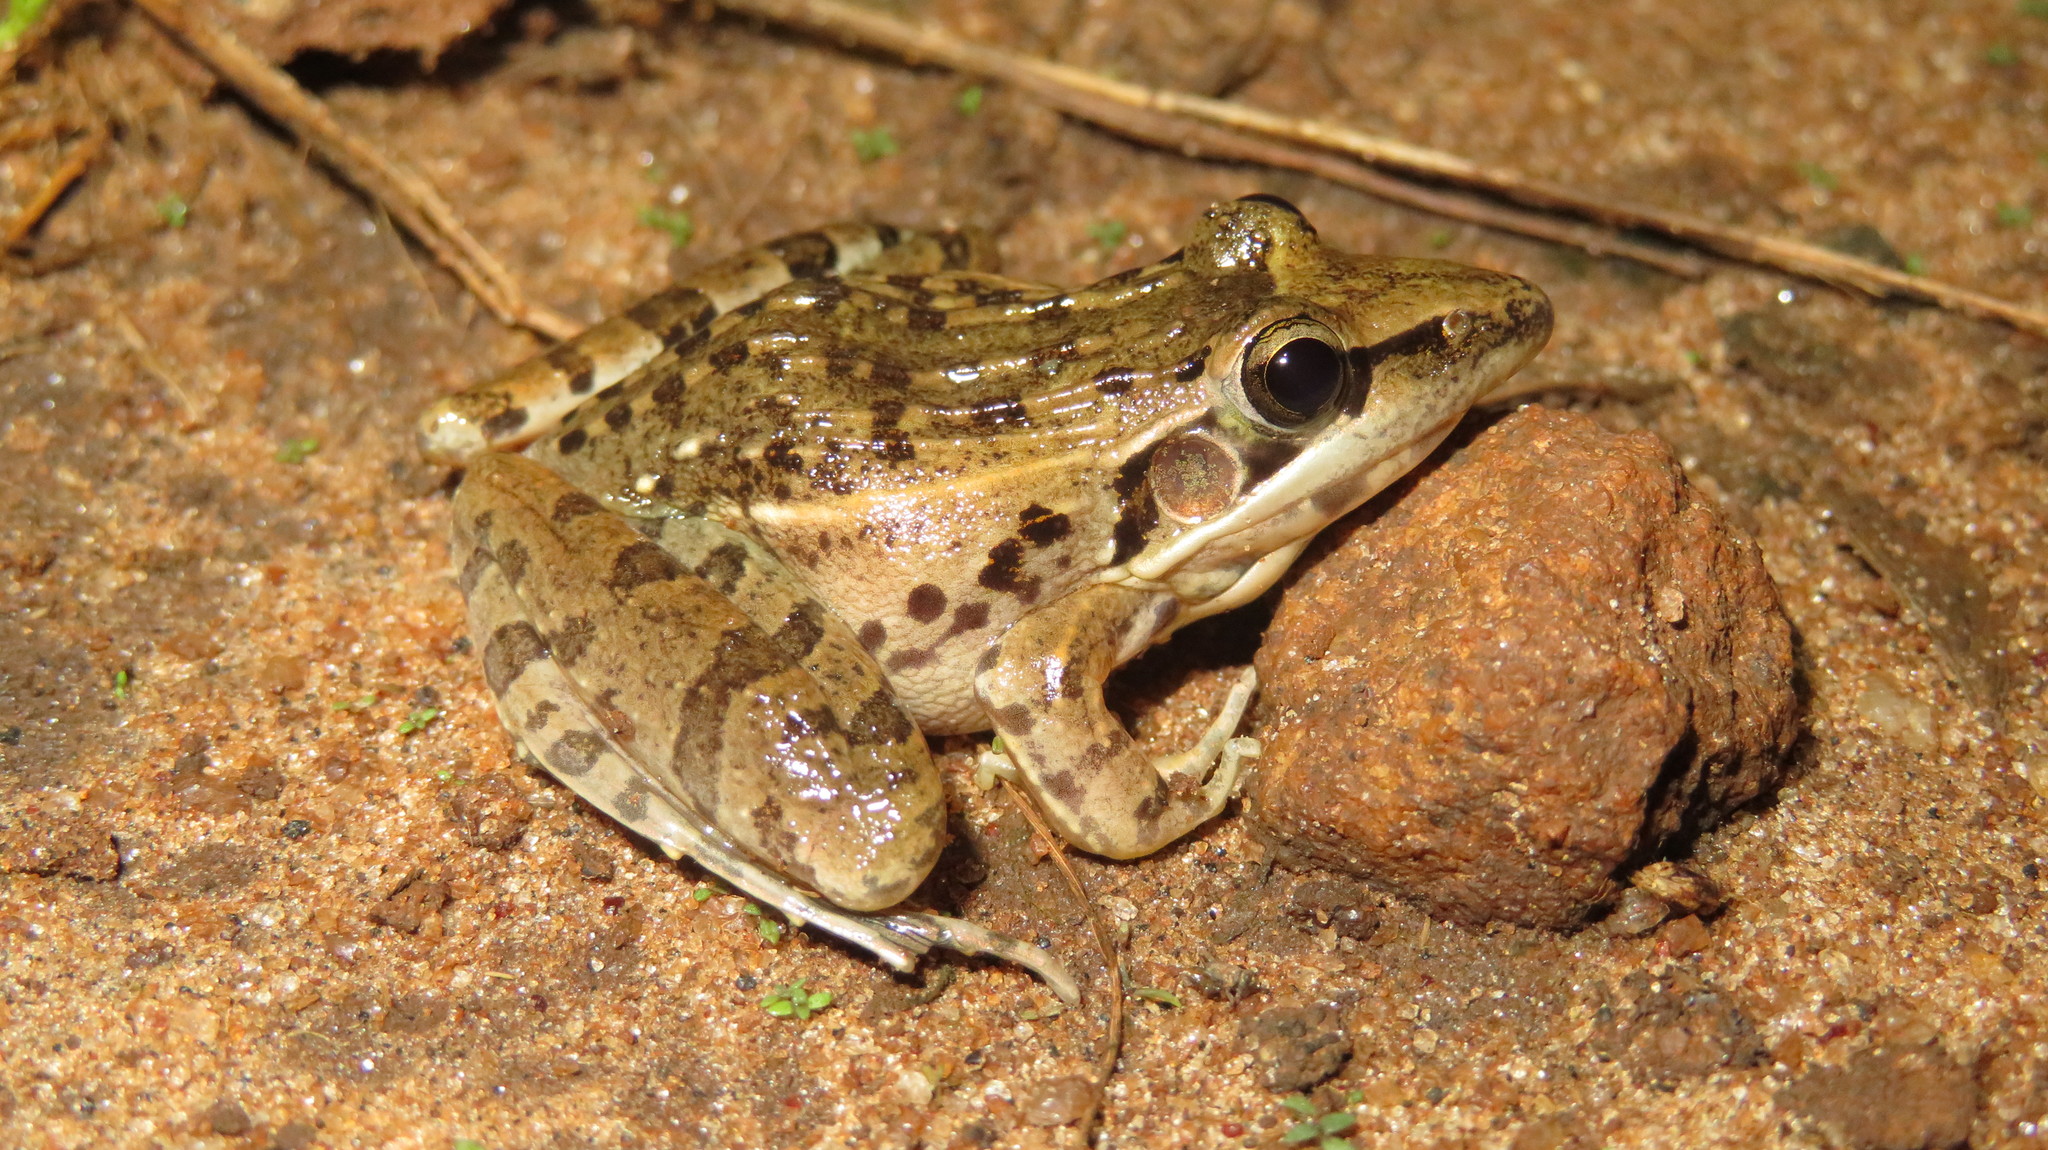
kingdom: Animalia
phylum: Chordata
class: Amphibia
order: Anura
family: Ptychadenidae
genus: Ptychadena
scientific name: Ptychadena anchietae
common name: Anchieta's ridged frog
